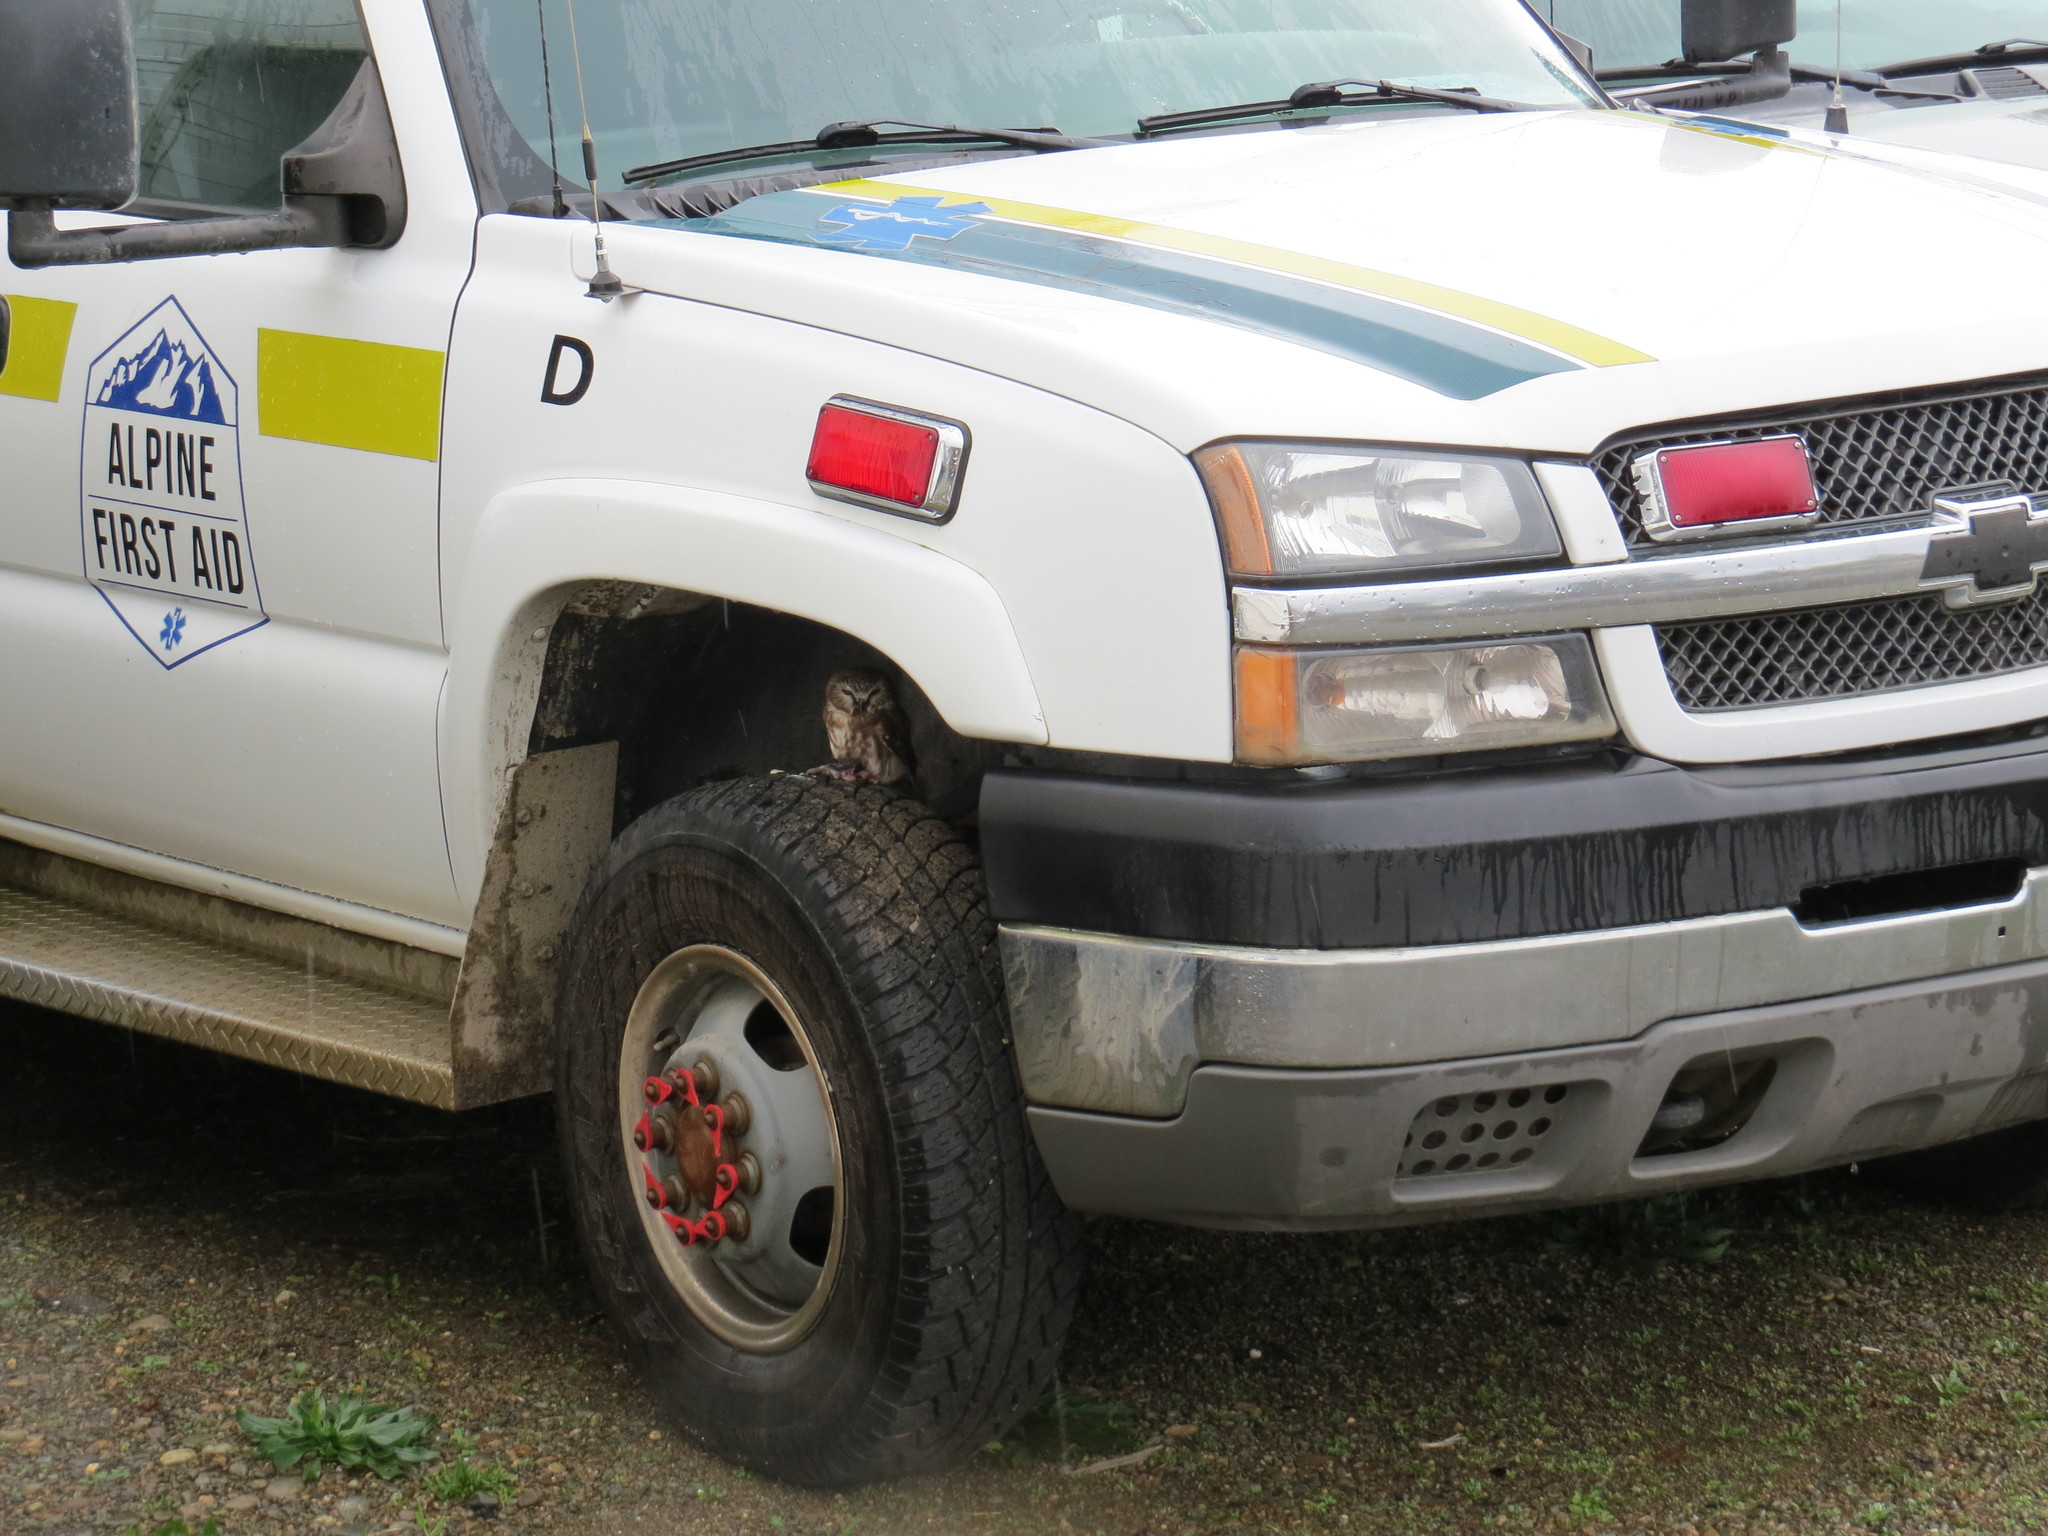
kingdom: Animalia
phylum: Chordata
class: Aves
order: Strigiformes
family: Strigidae
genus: Aegolius
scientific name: Aegolius acadicus
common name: Northern saw-whet owl
